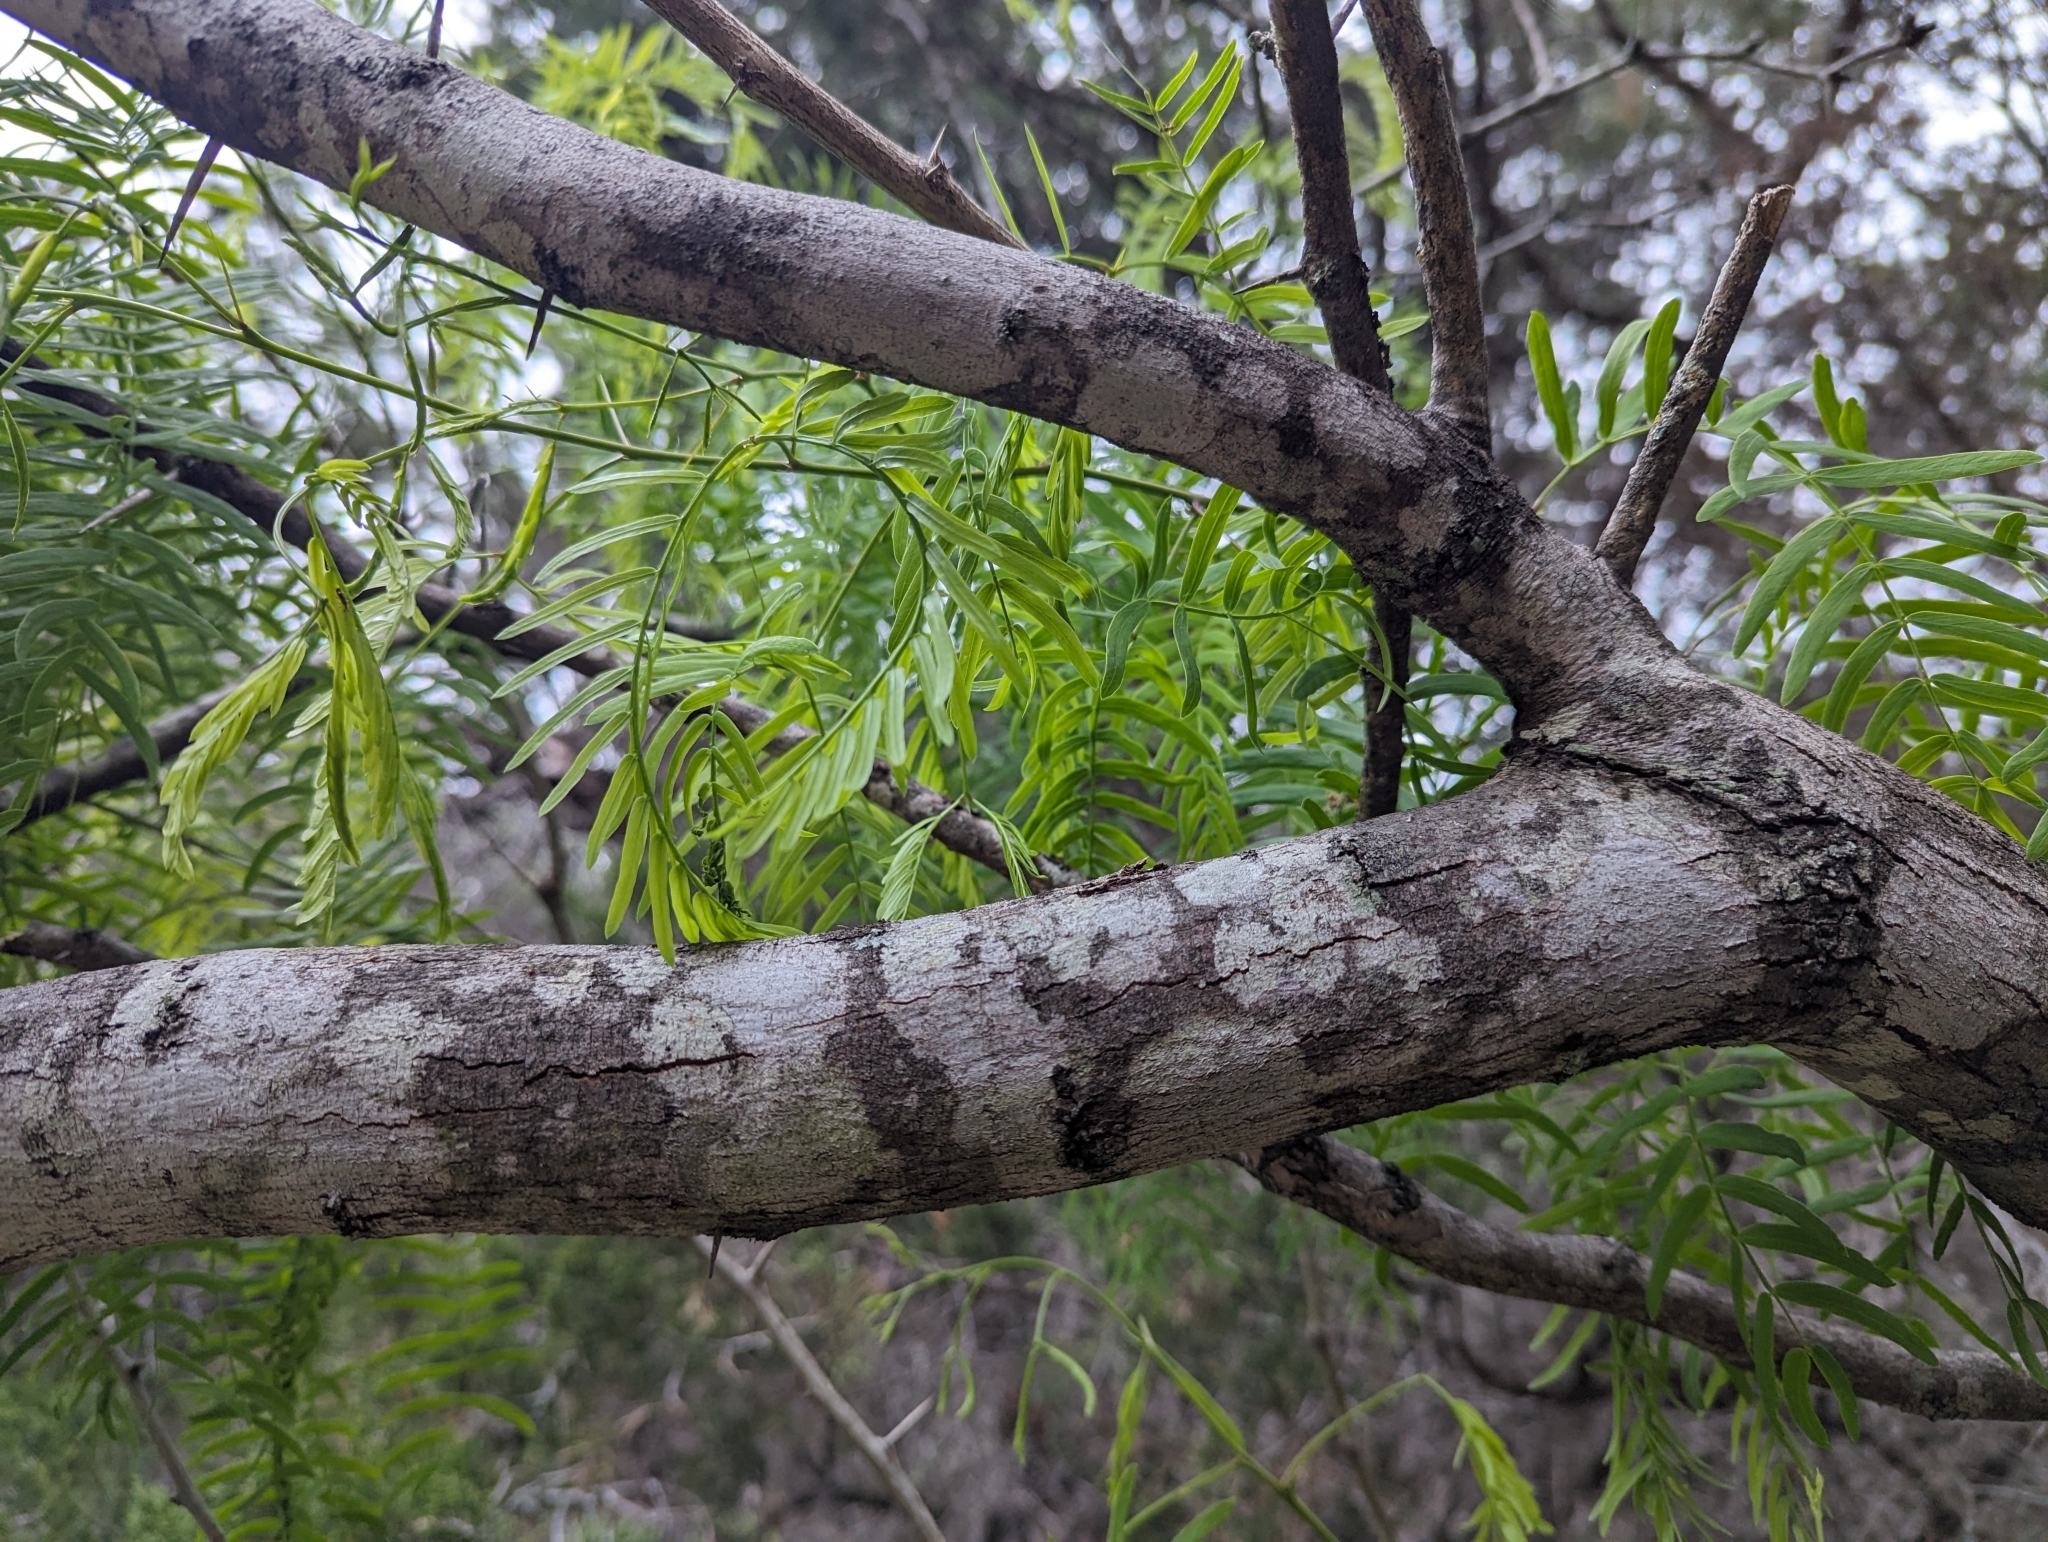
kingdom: Plantae
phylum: Tracheophyta
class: Magnoliopsida
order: Fabales
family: Fabaceae
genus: Prosopis
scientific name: Prosopis glandulosa
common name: Honey mesquite
